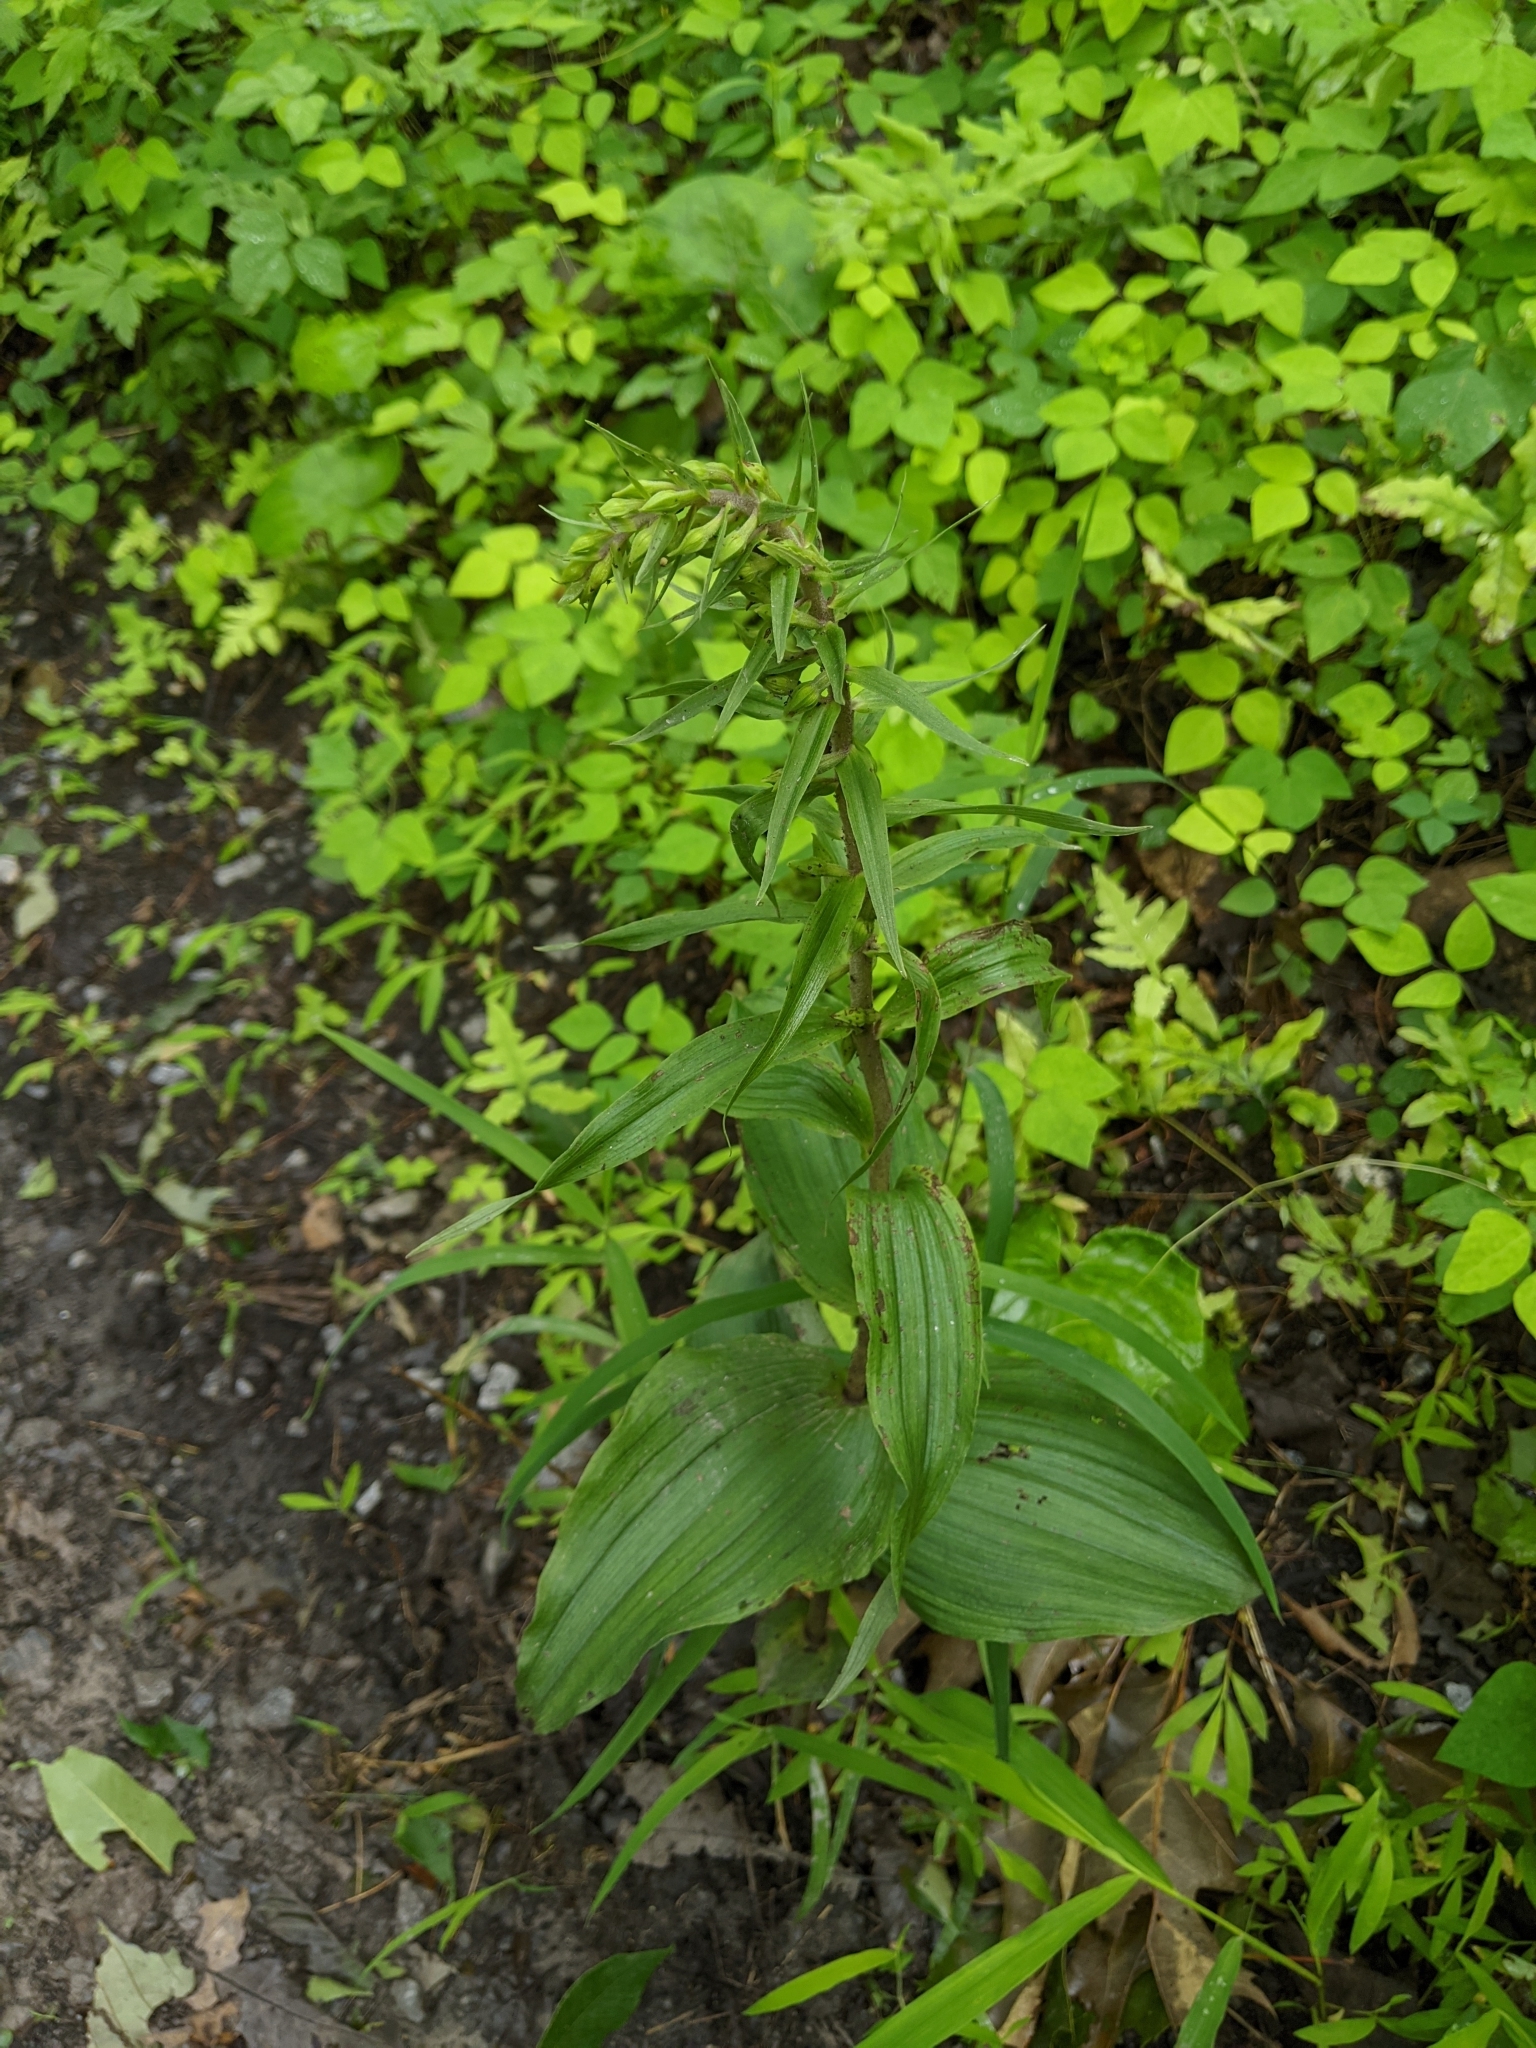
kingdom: Plantae
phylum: Tracheophyta
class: Liliopsida
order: Asparagales
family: Orchidaceae
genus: Epipactis
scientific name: Epipactis helleborine
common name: Broad-leaved helleborine
